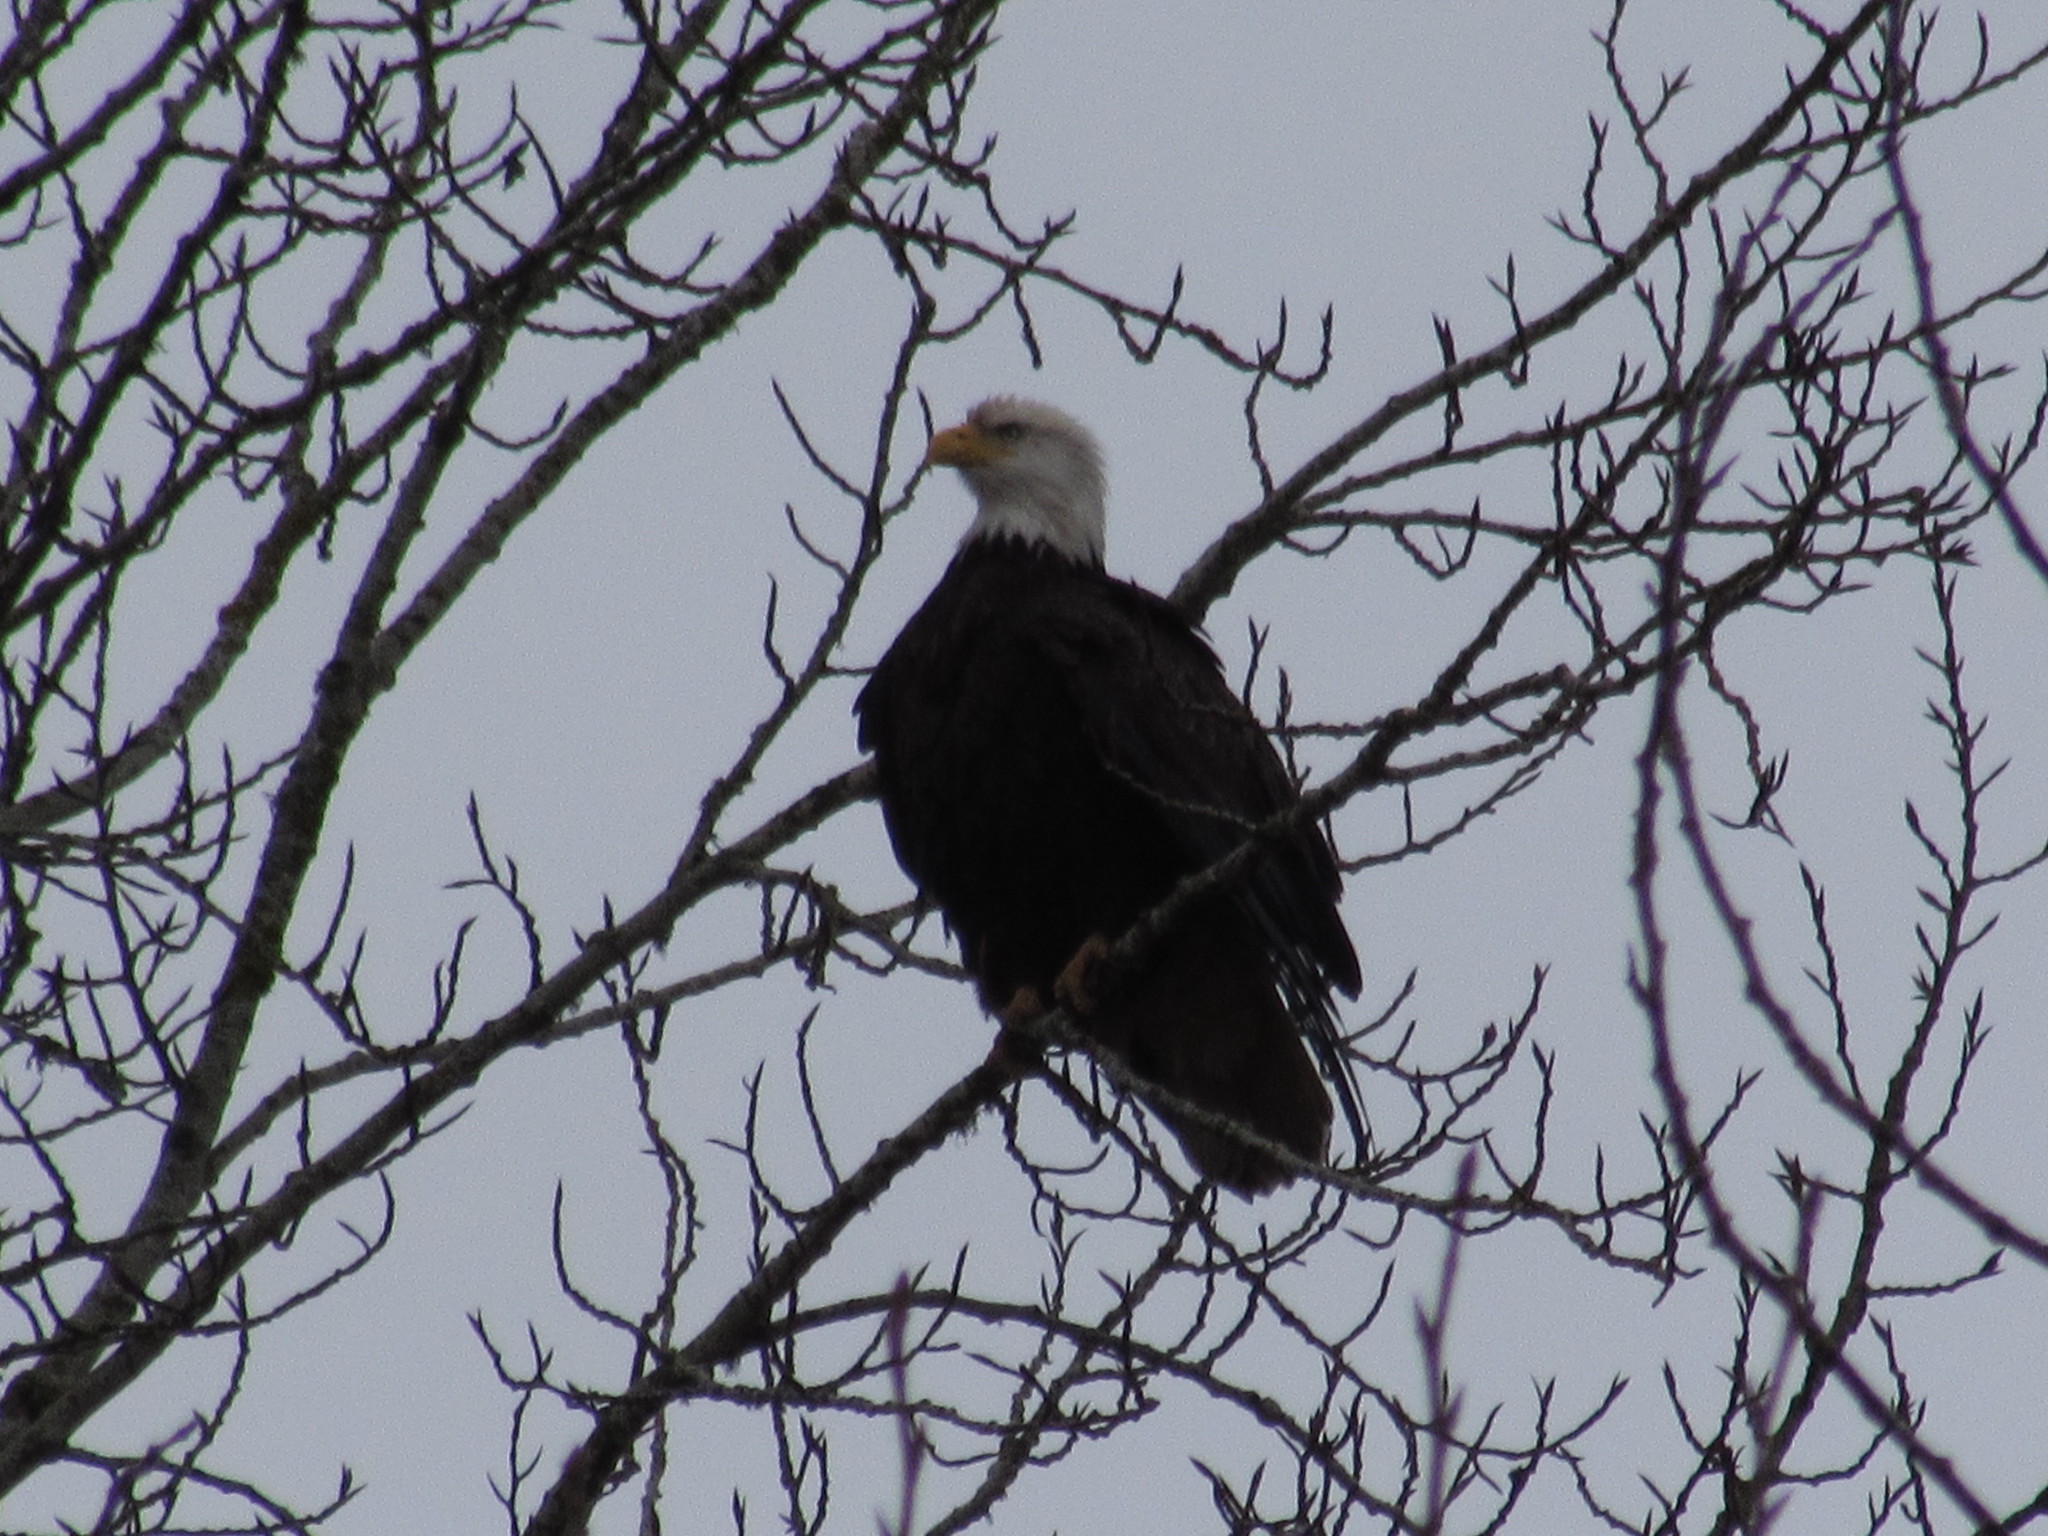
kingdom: Animalia
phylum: Chordata
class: Aves
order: Accipitriformes
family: Accipitridae
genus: Haliaeetus
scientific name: Haliaeetus leucocephalus
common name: Bald eagle
